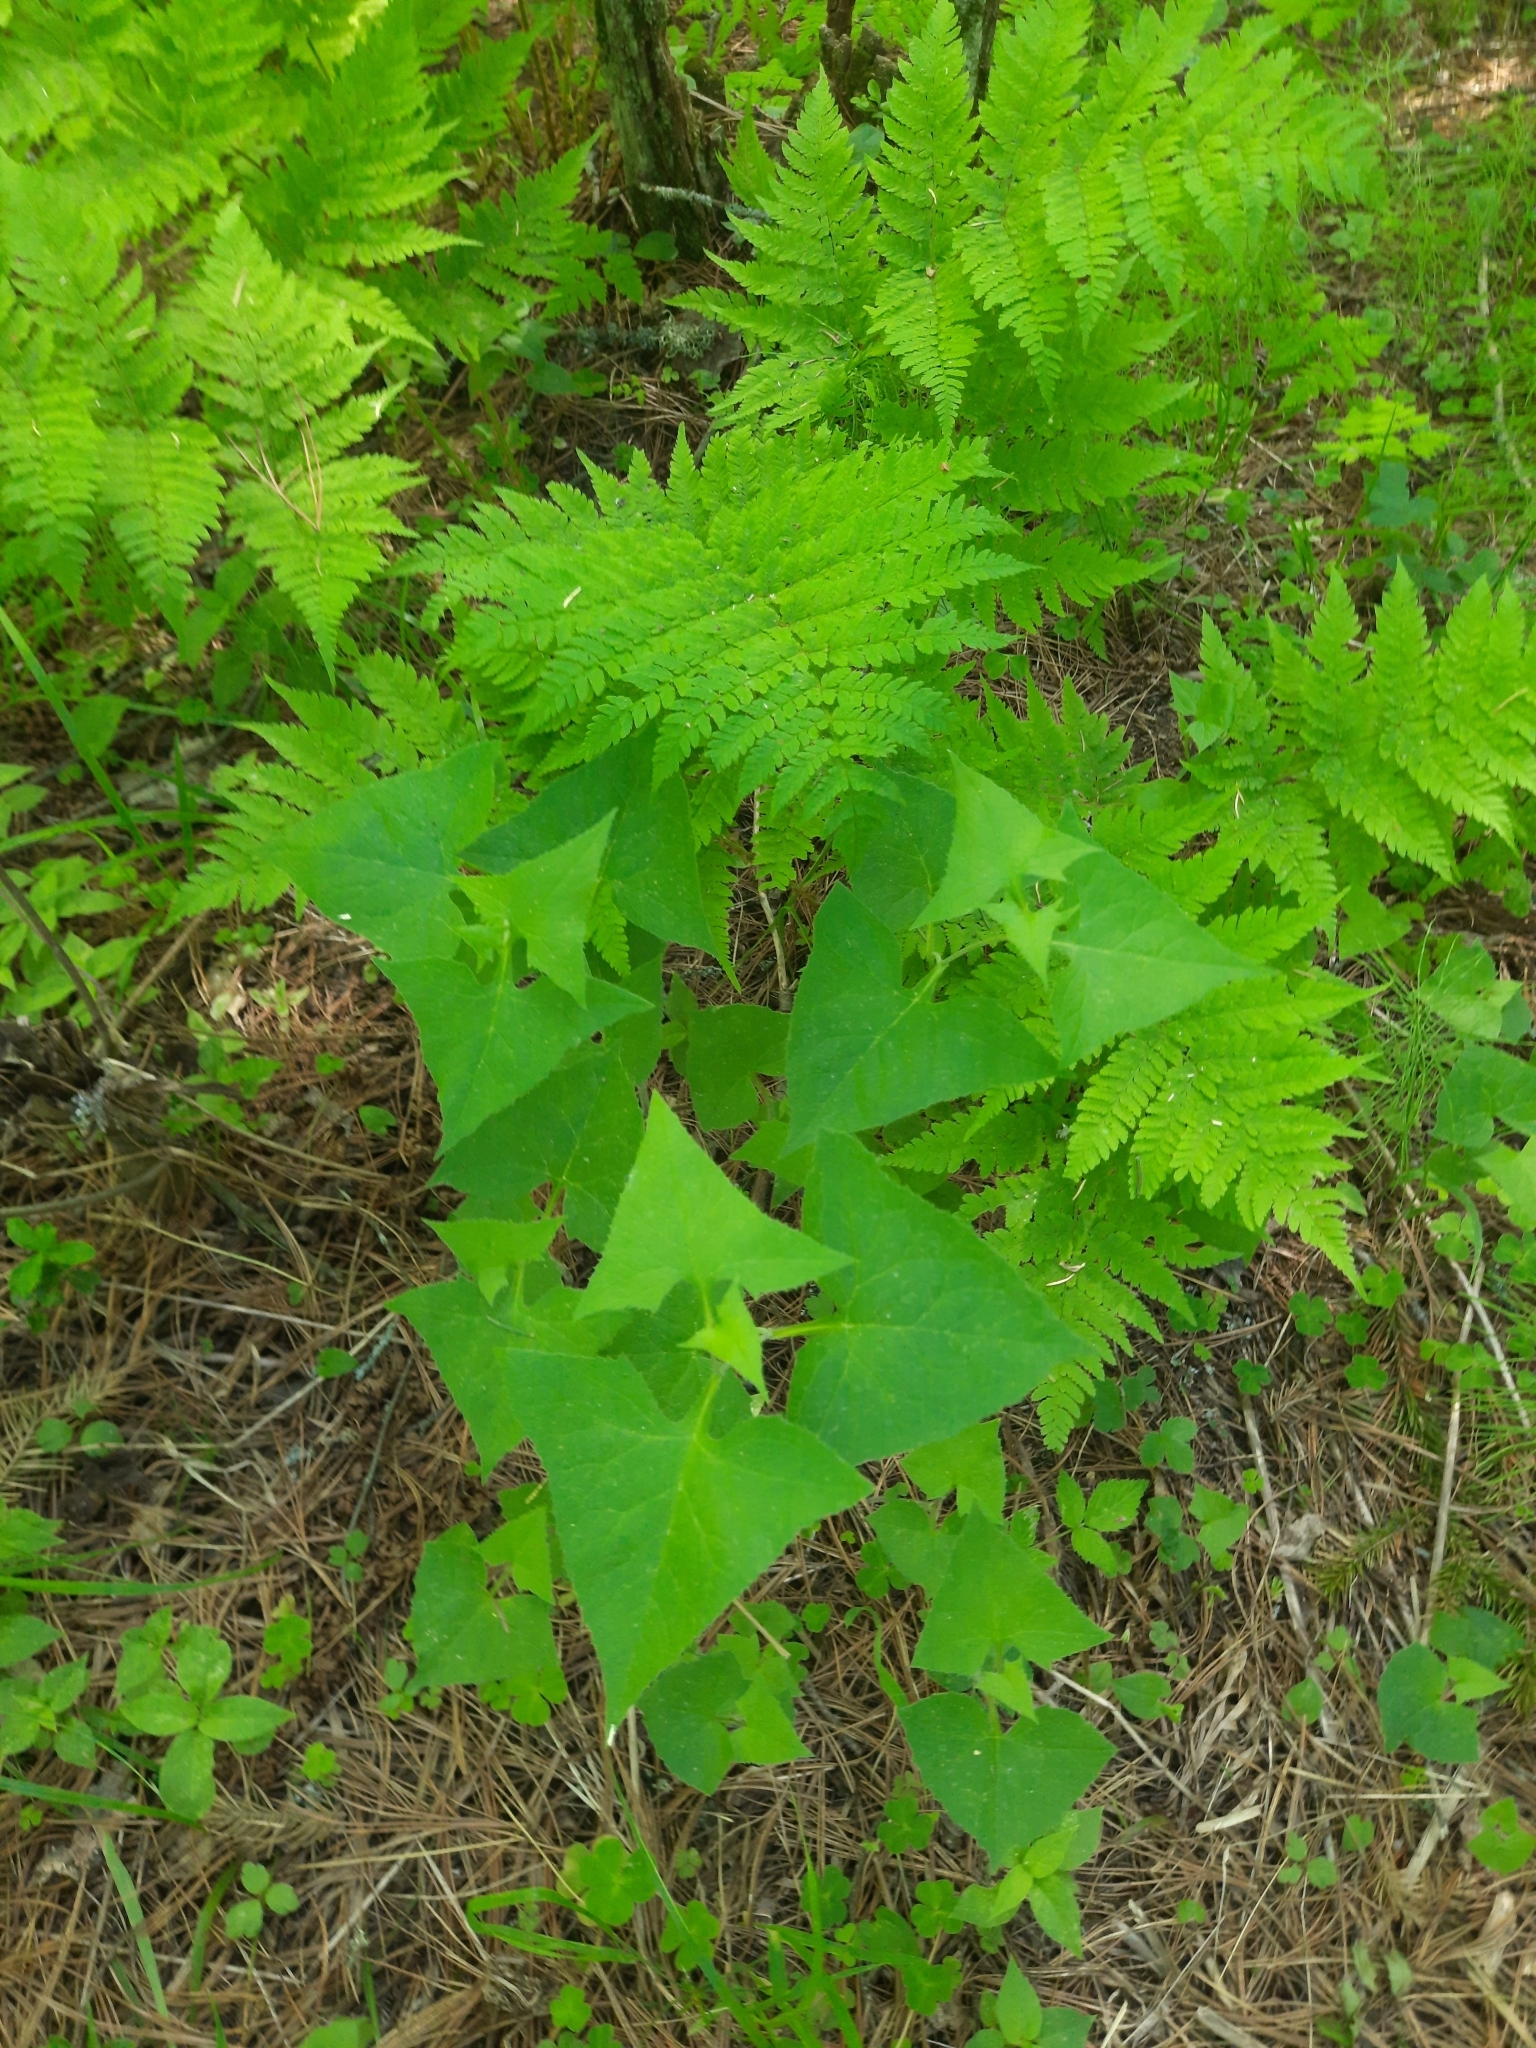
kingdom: Plantae
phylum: Tracheophyta
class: Magnoliopsida
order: Asterales
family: Asteraceae
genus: Parasenecio
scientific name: Parasenecio hastatus
